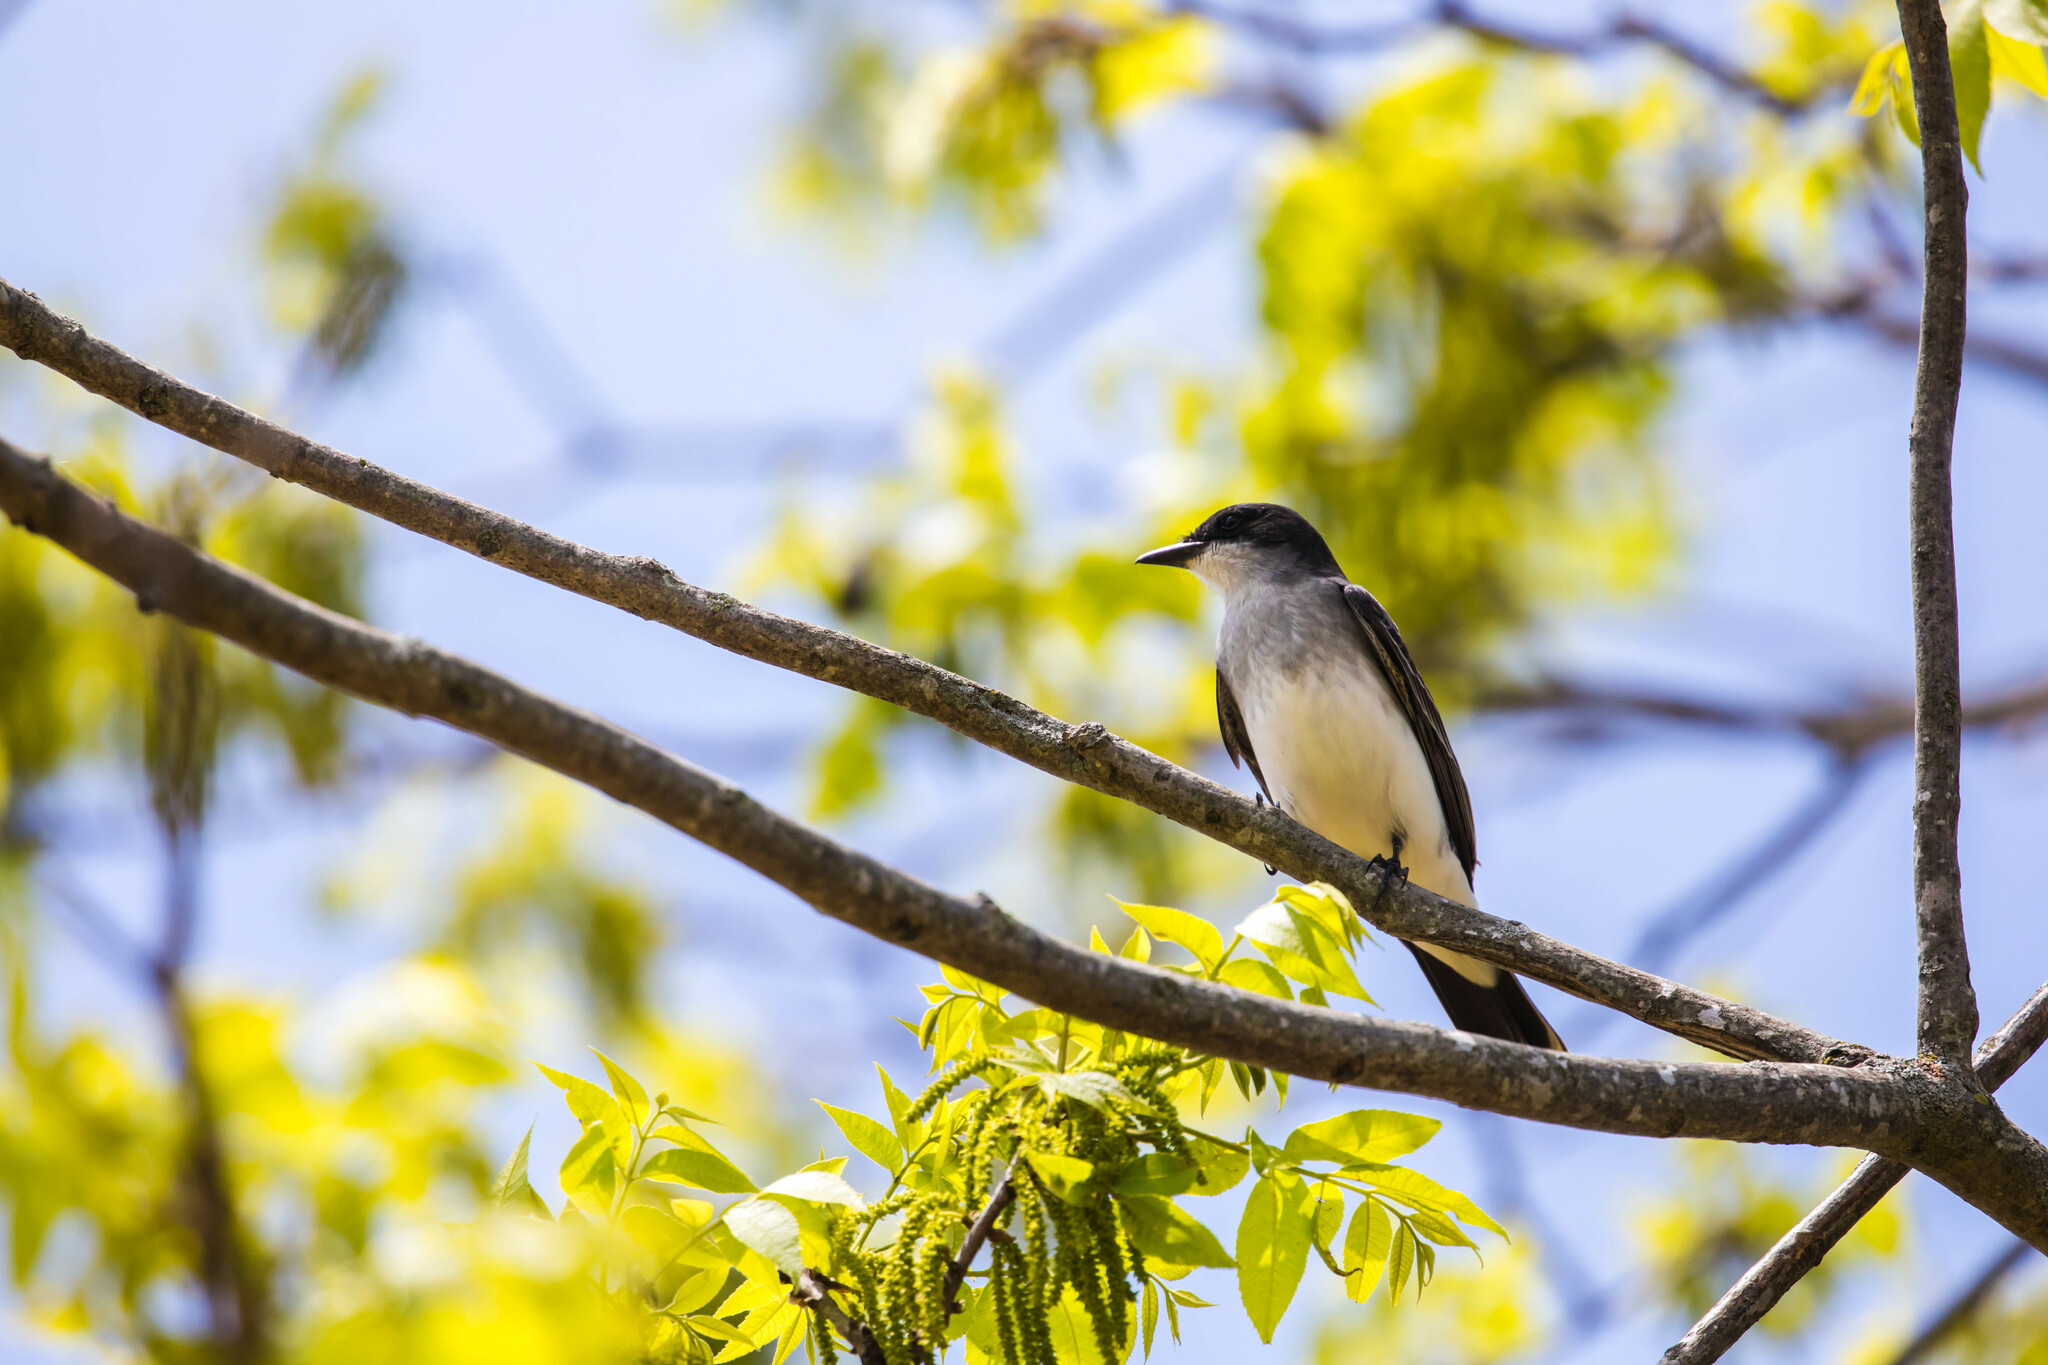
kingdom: Animalia
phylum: Chordata
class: Aves
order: Passeriformes
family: Tyrannidae
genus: Tyrannus
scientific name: Tyrannus tyrannus
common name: Eastern kingbird
